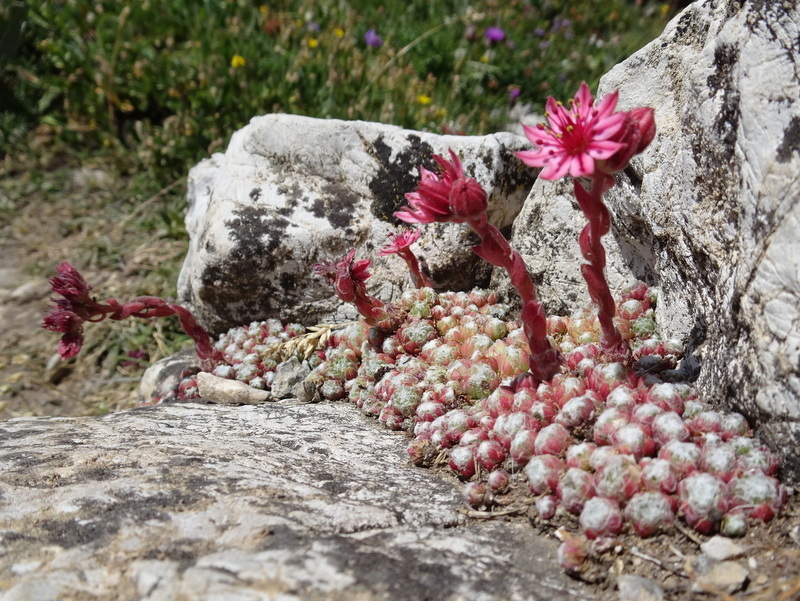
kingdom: Plantae
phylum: Tracheophyta
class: Magnoliopsida
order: Saxifragales
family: Crassulaceae
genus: Sempervivum
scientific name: Sempervivum arachnoideum
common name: Cobweb house-leek
